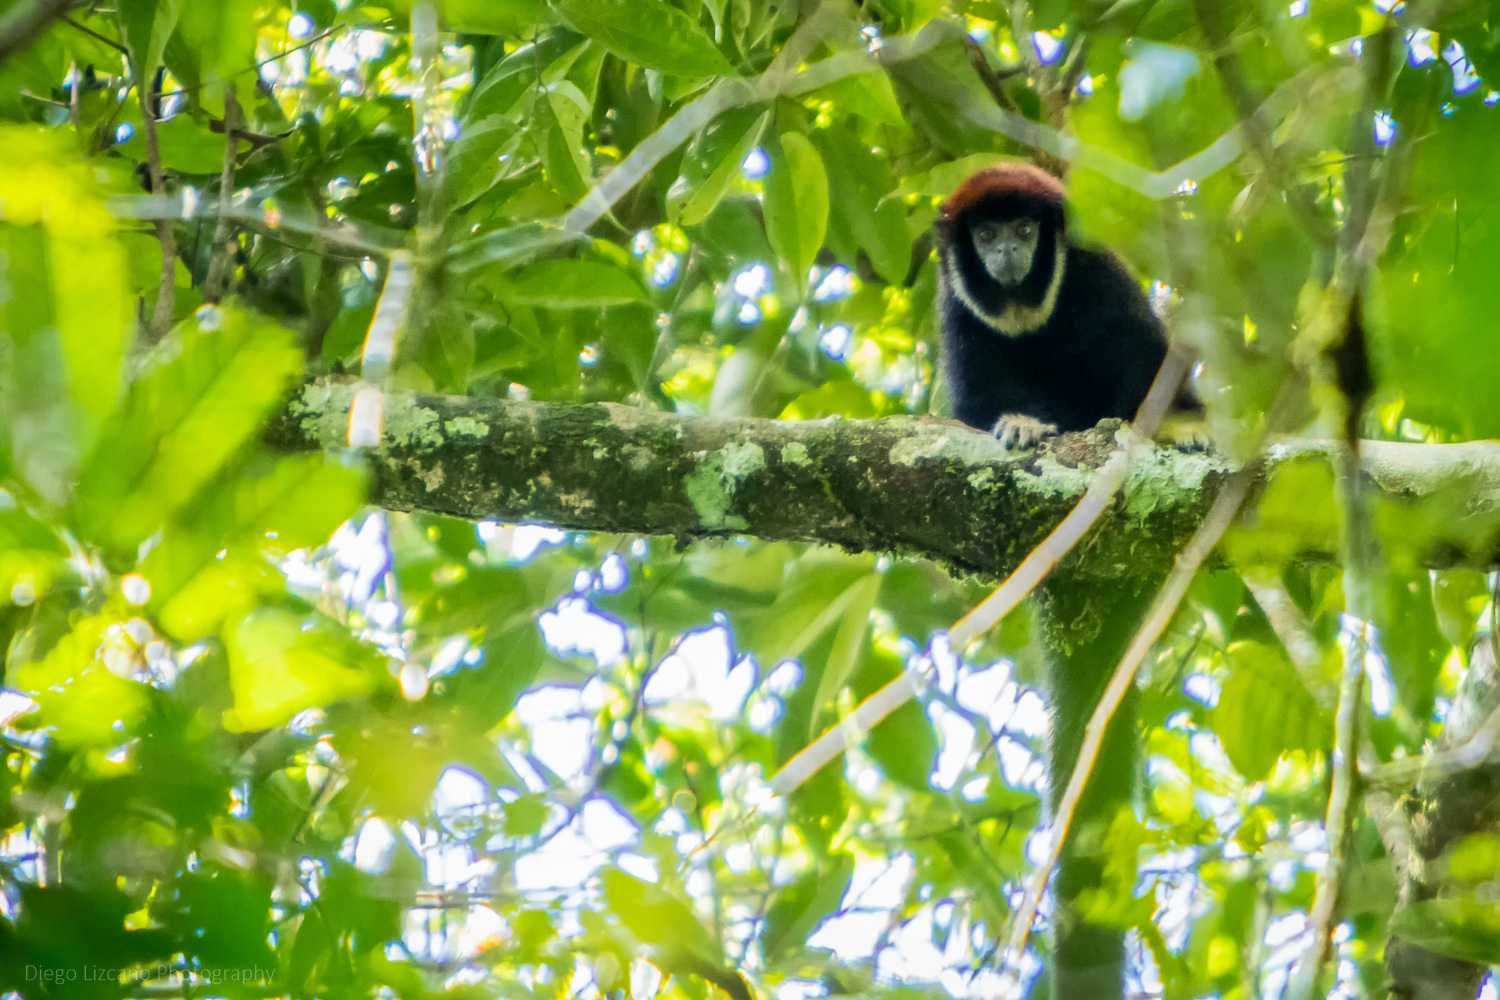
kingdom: Animalia
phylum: Chordata
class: Mammalia
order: Primates
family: Pitheciidae
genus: Cheracebus
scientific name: Cheracebus lugens
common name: Widow monkey
